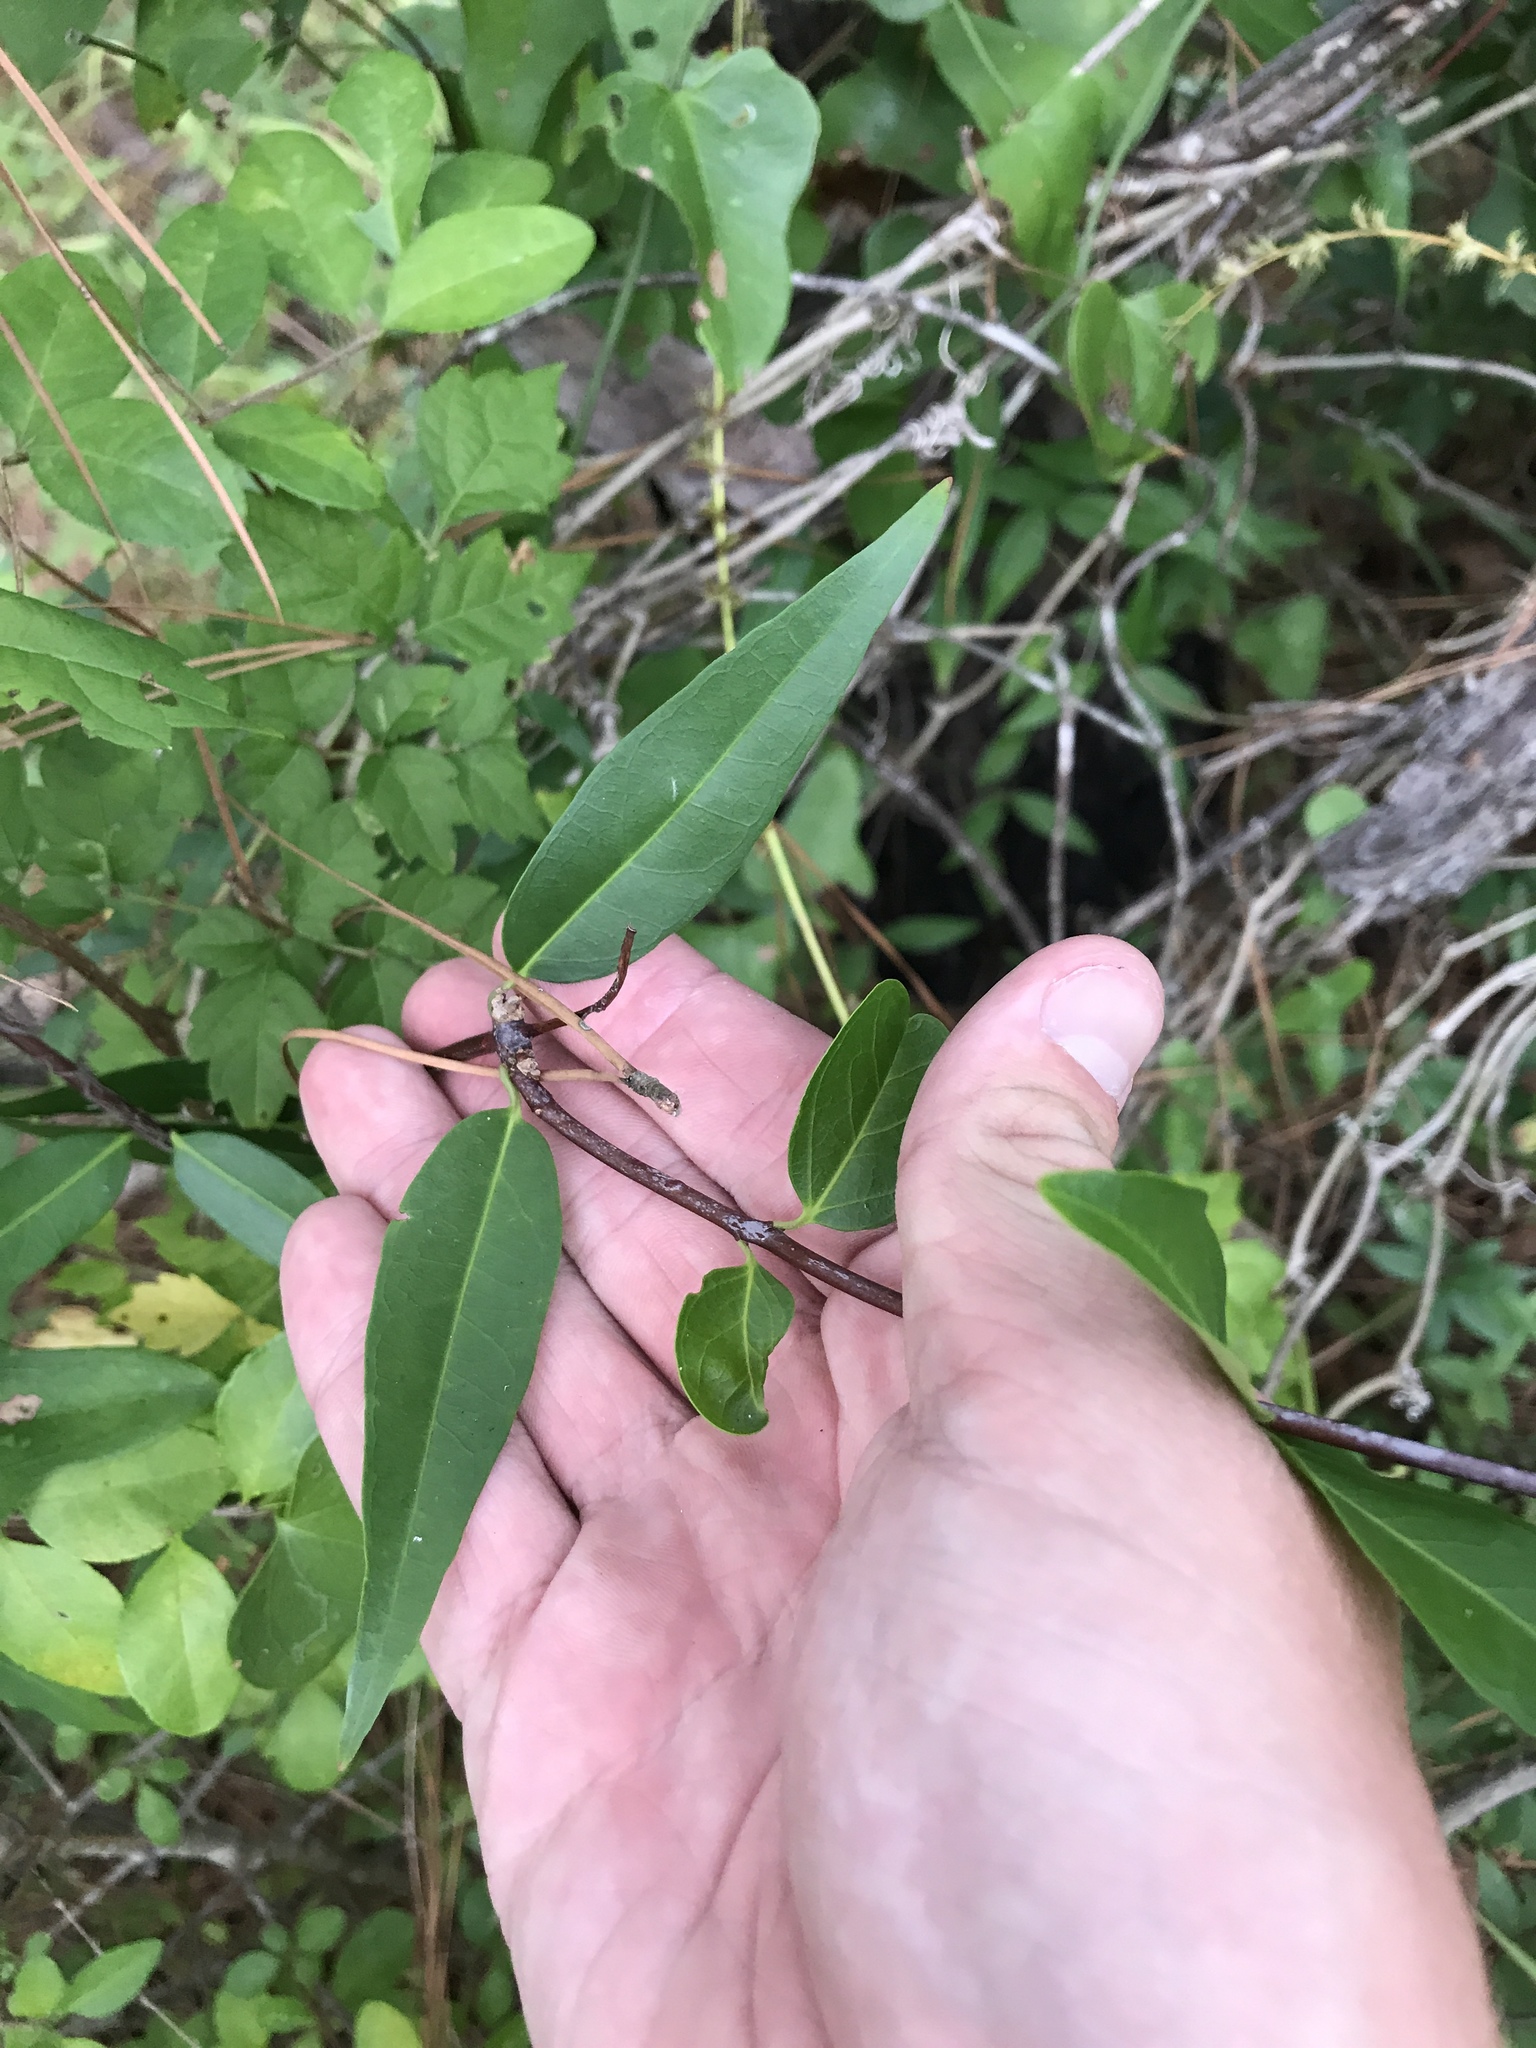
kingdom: Plantae
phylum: Tracheophyta
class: Magnoliopsida
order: Gentianales
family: Gelsemiaceae
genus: Gelsemium
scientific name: Gelsemium sempervirens
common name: Carolina-jasmine
